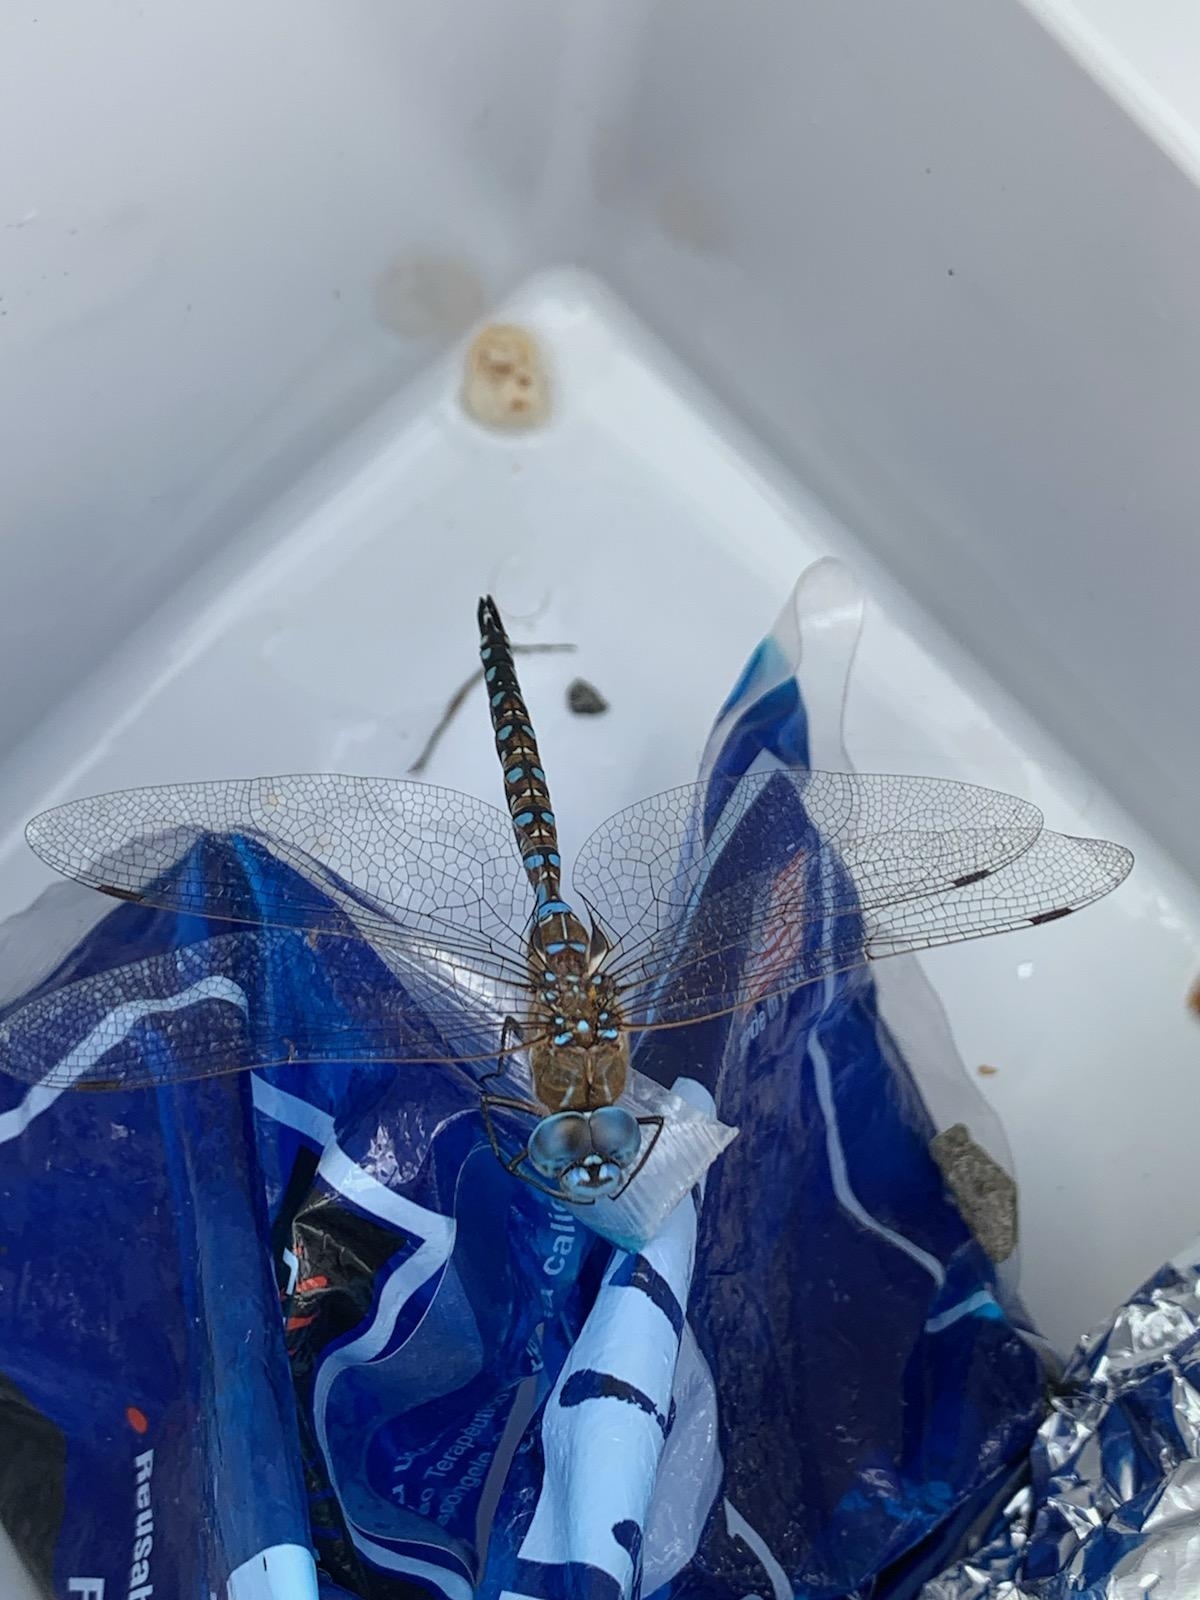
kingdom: Animalia
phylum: Arthropoda
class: Insecta
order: Odonata
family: Aeshnidae
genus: Rhionaeschna
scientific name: Rhionaeschna multicolor
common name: Blue-eyed darner
